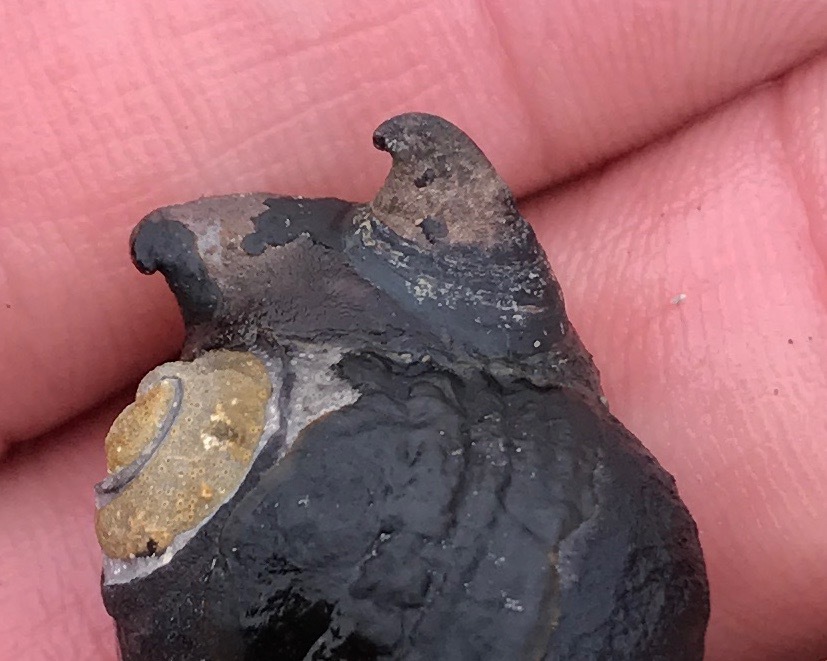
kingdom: Animalia
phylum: Mollusca
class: Gastropoda
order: Littorinimorpha
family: Calyptraeidae
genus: Crepidula
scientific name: Crepidula adunca
